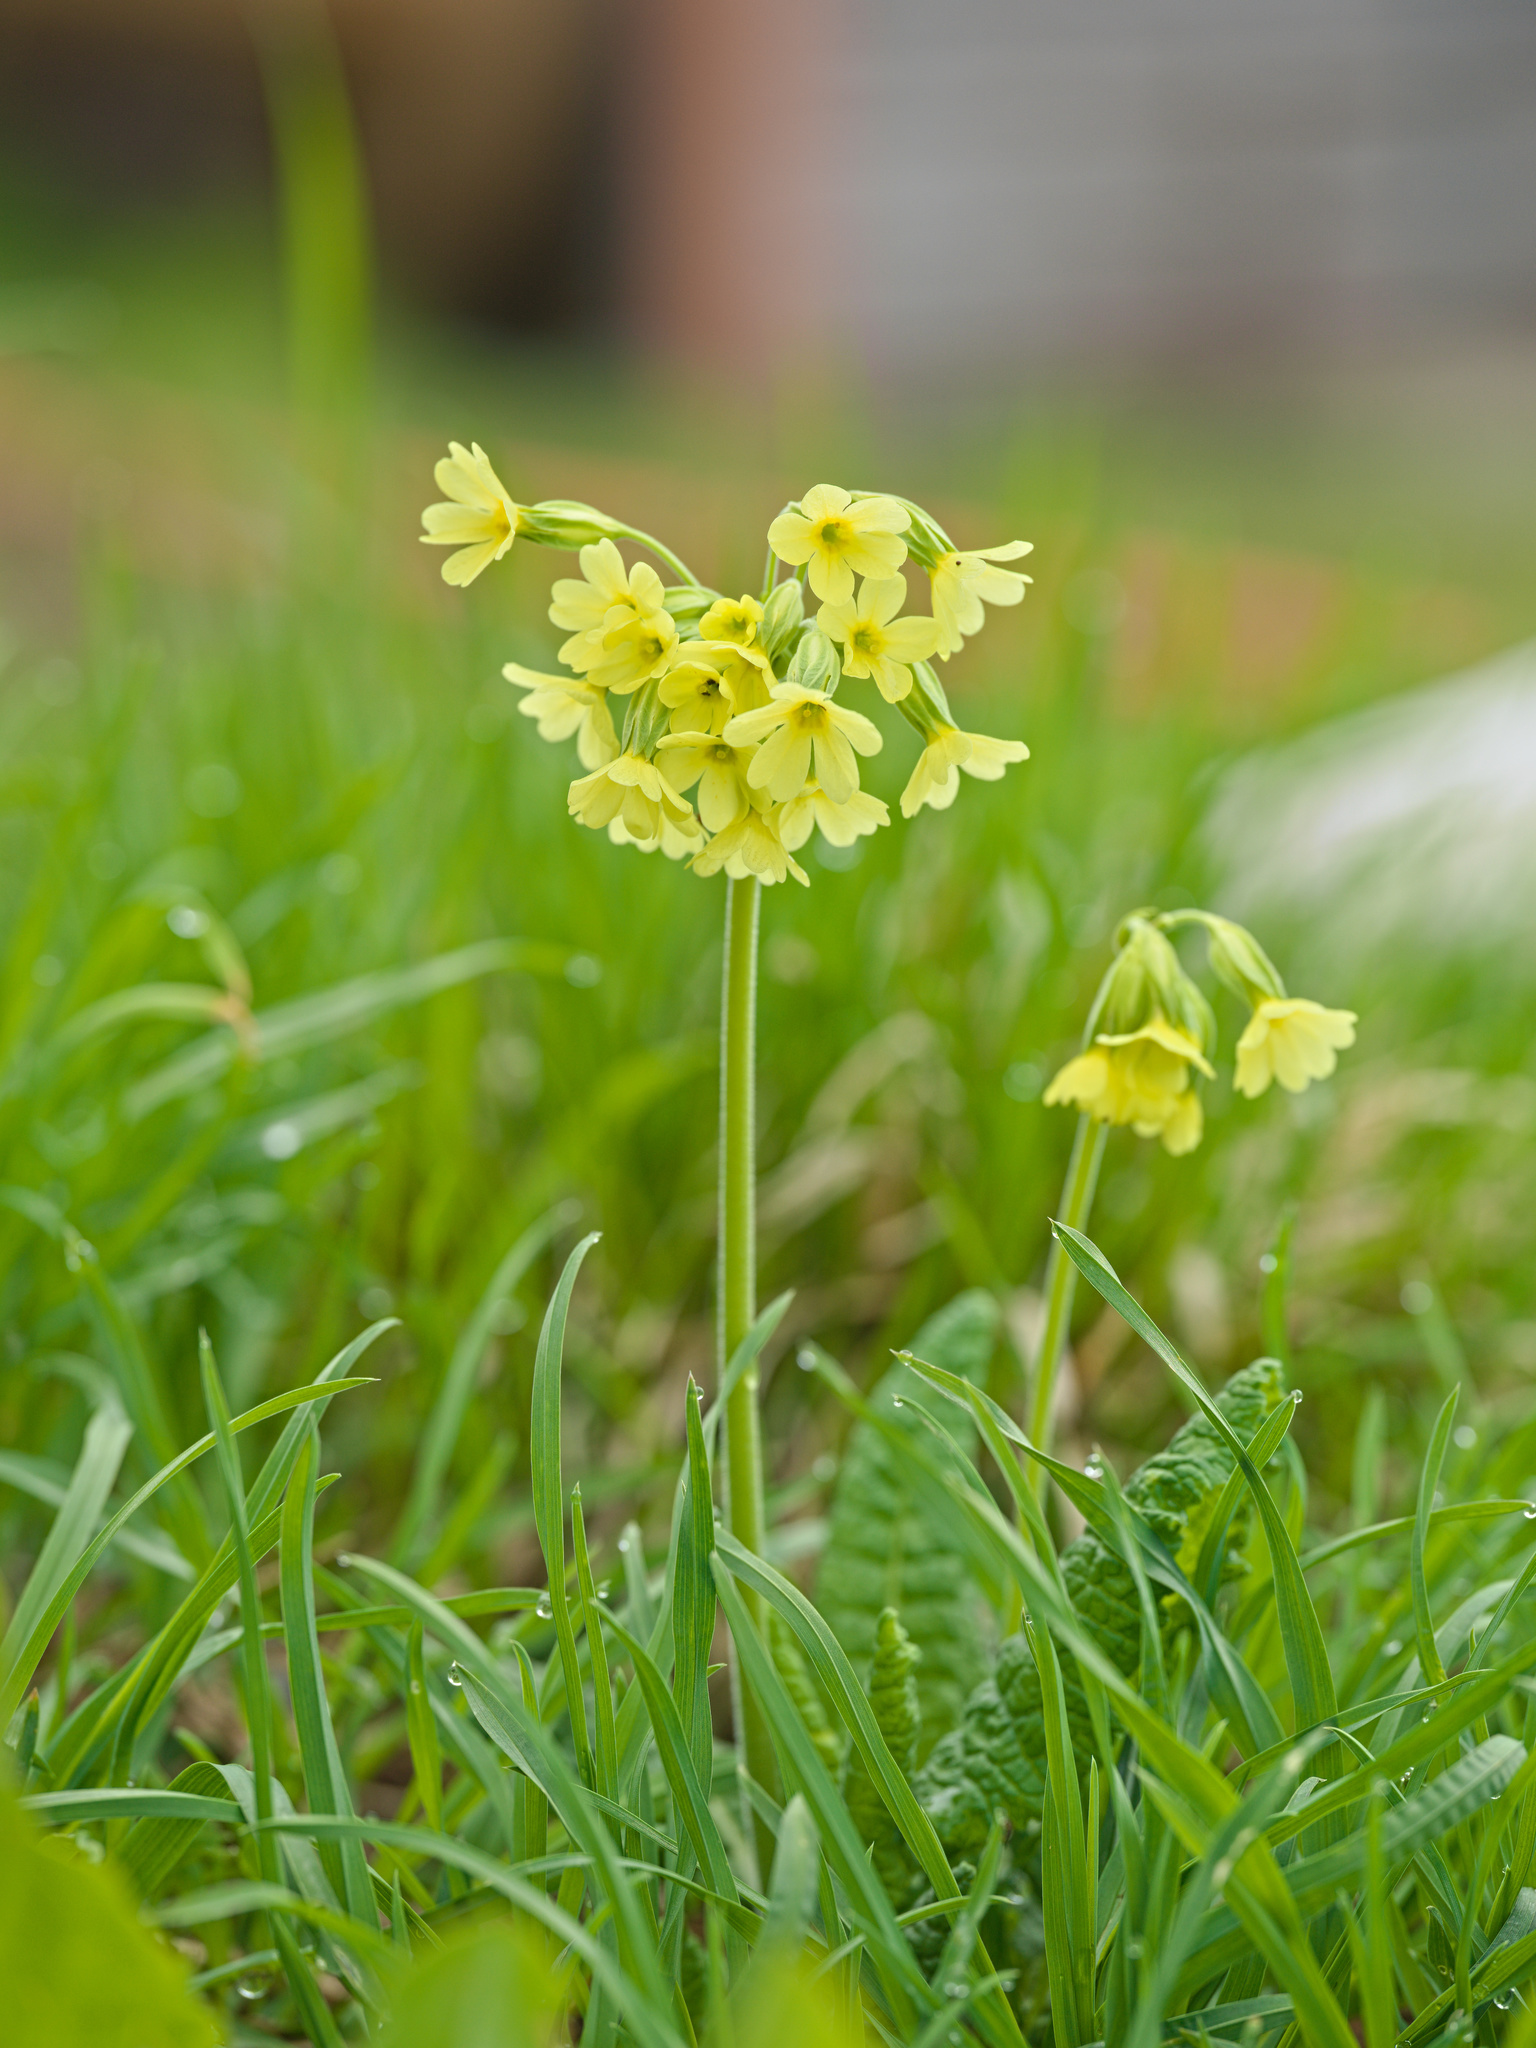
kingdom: Plantae
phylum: Tracheophyta
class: Magnoliopsida
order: Ericales
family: Primulaceae
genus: Primula
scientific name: Primula elatior
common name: Oxlip
